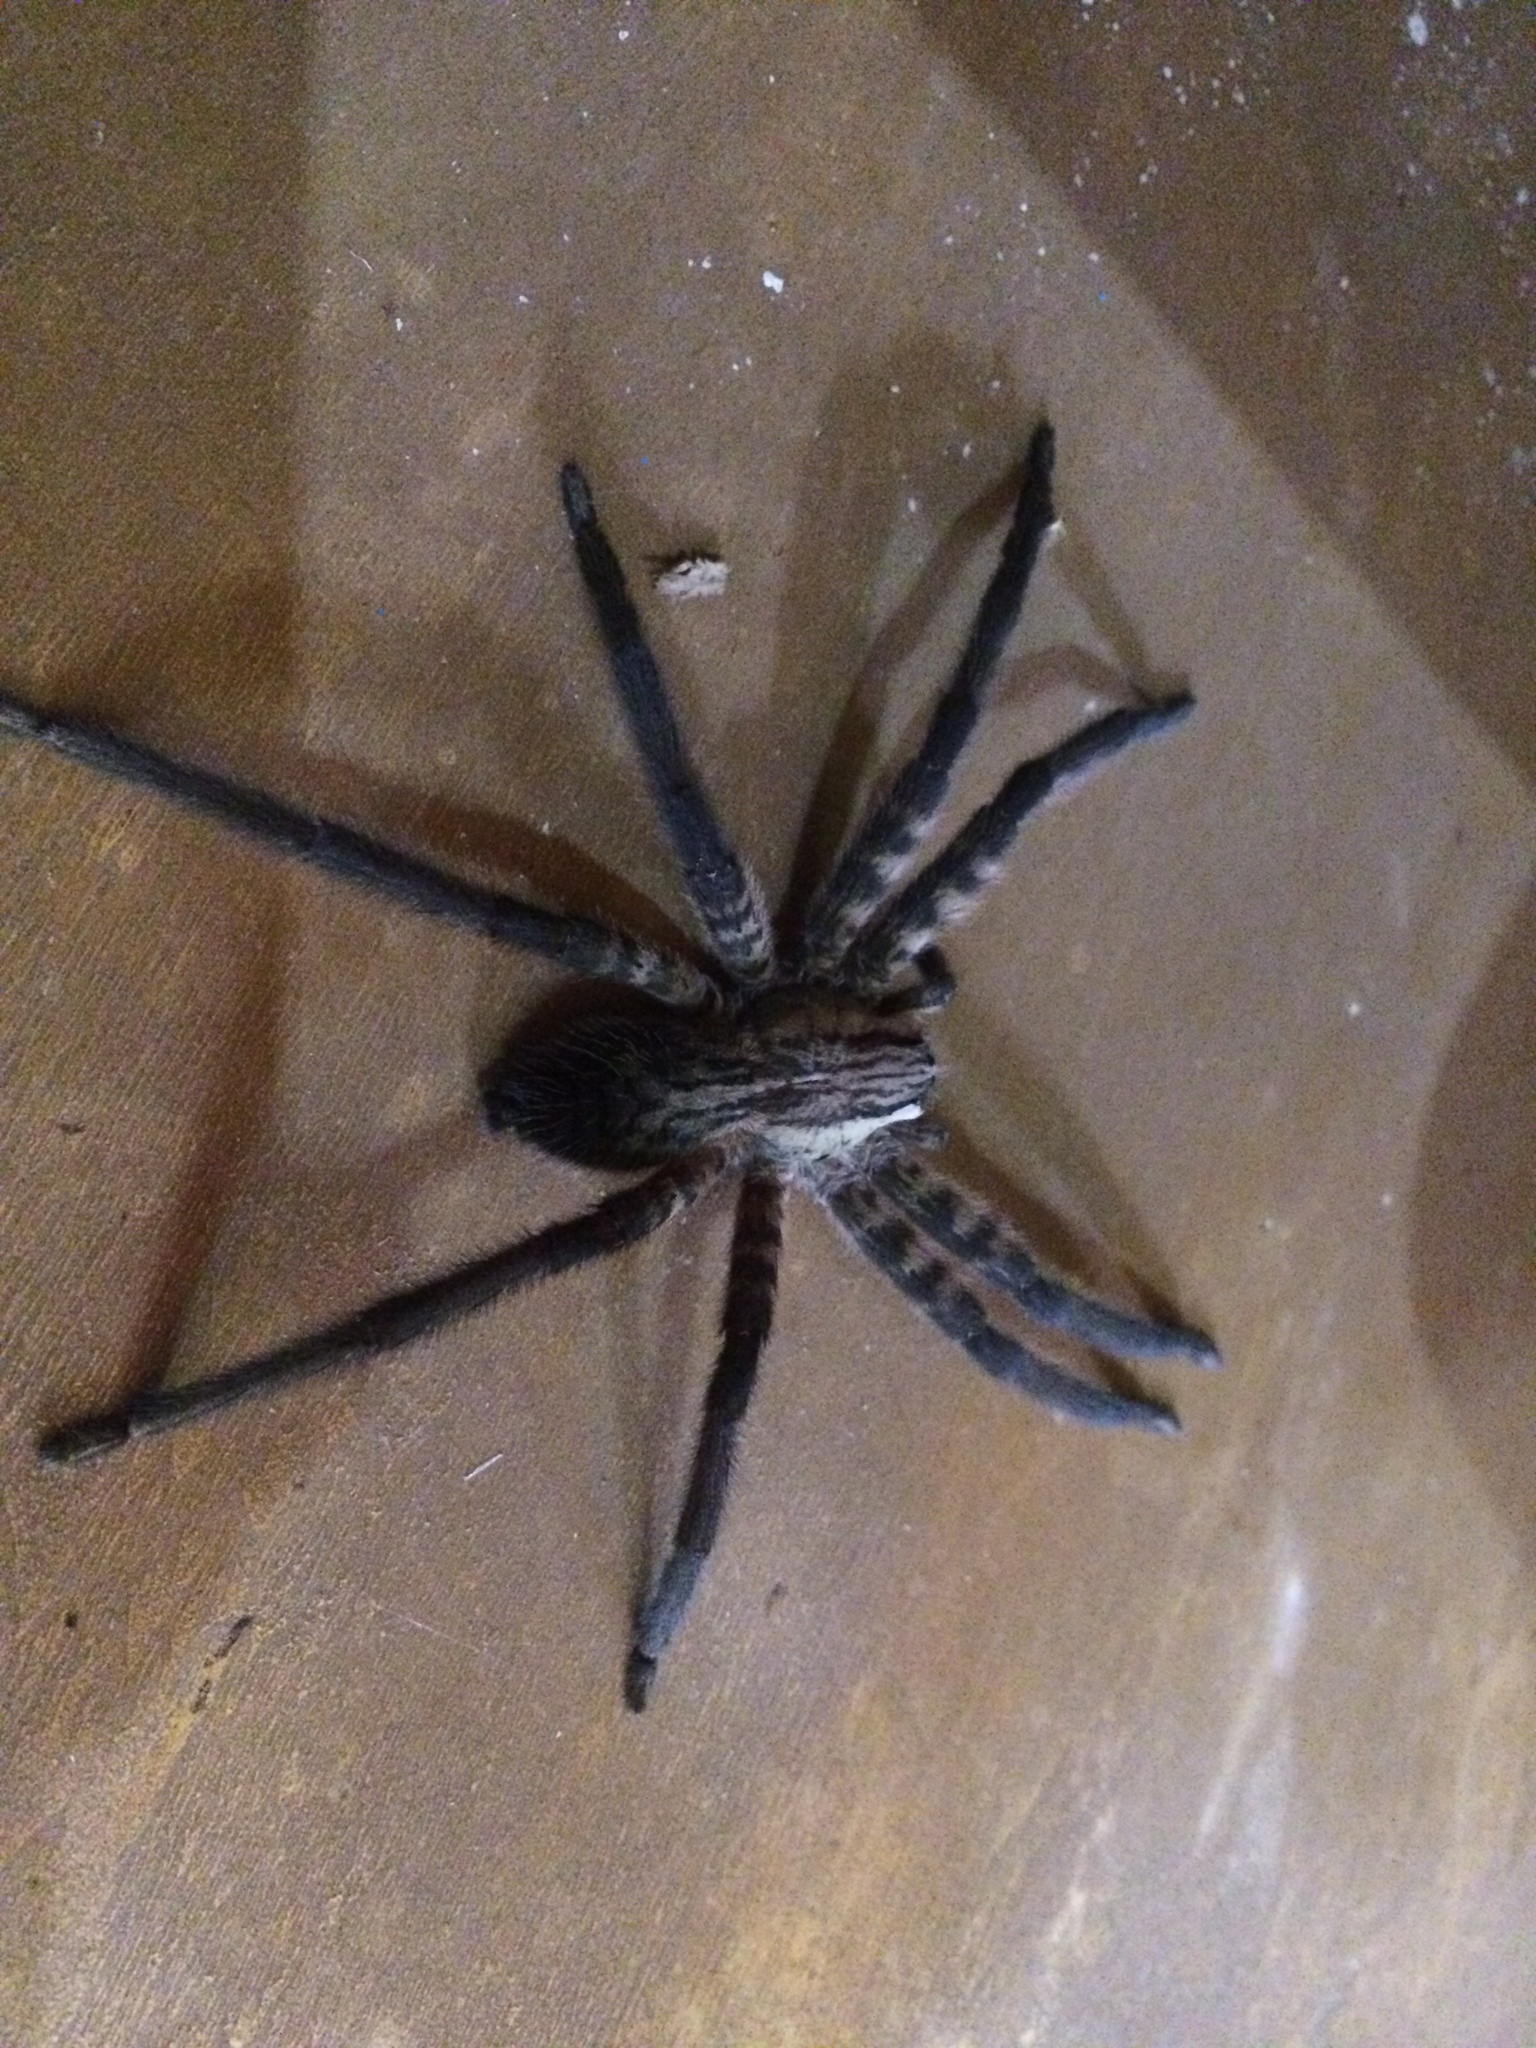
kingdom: Animalia
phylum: Arthropoda
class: Arachnida
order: Araneae
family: Trechaleidae
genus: Cupiennius
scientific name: Cupiennius salei
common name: Wandering spiders
